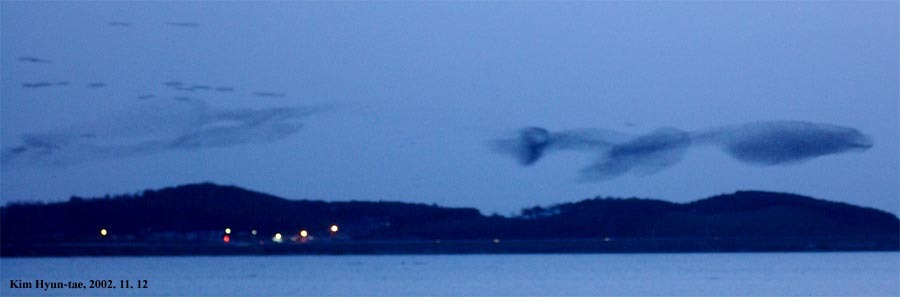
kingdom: Animalia
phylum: Chordata
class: Aves
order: Anseriformes
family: Anatidae
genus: Sibirionetta
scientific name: Sibirionetta formosa
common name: Baikal teal
